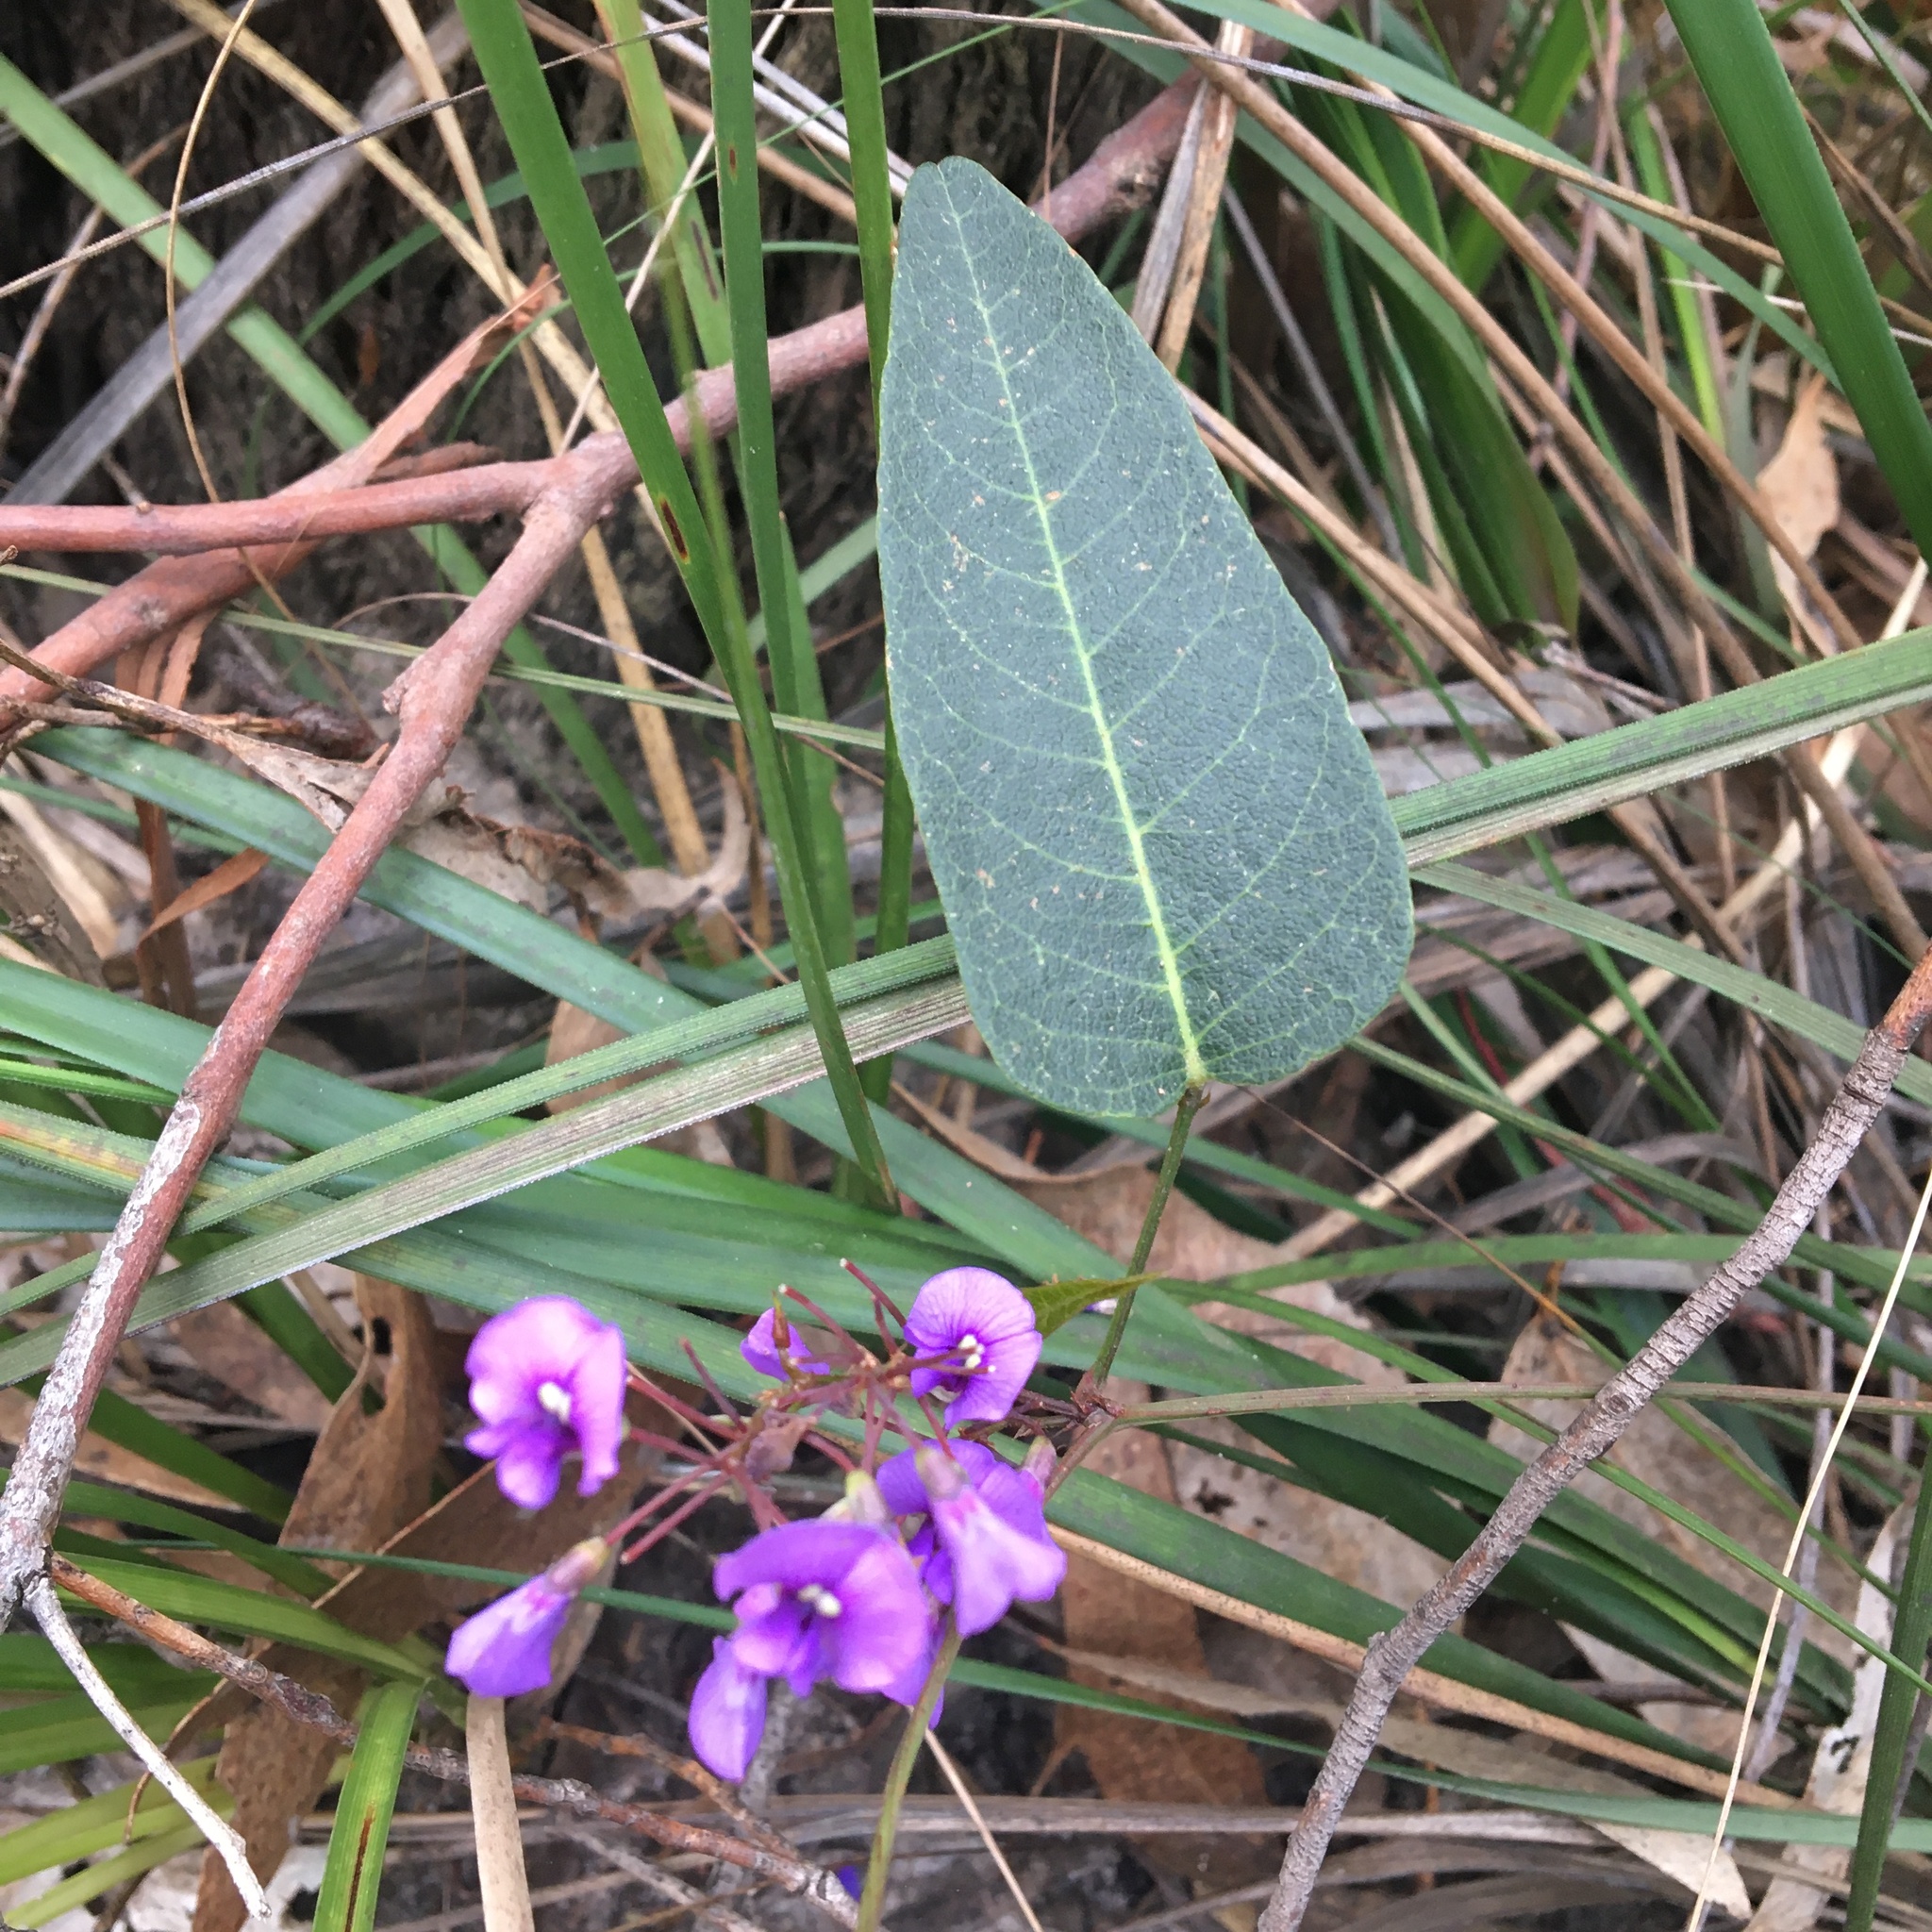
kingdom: Plantae
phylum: Tracheophyta
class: Magnoliopsida
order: Fabales
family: Fabaceae
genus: Hardenbergia
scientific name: Hardenbergia violacea
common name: Coral-pea
